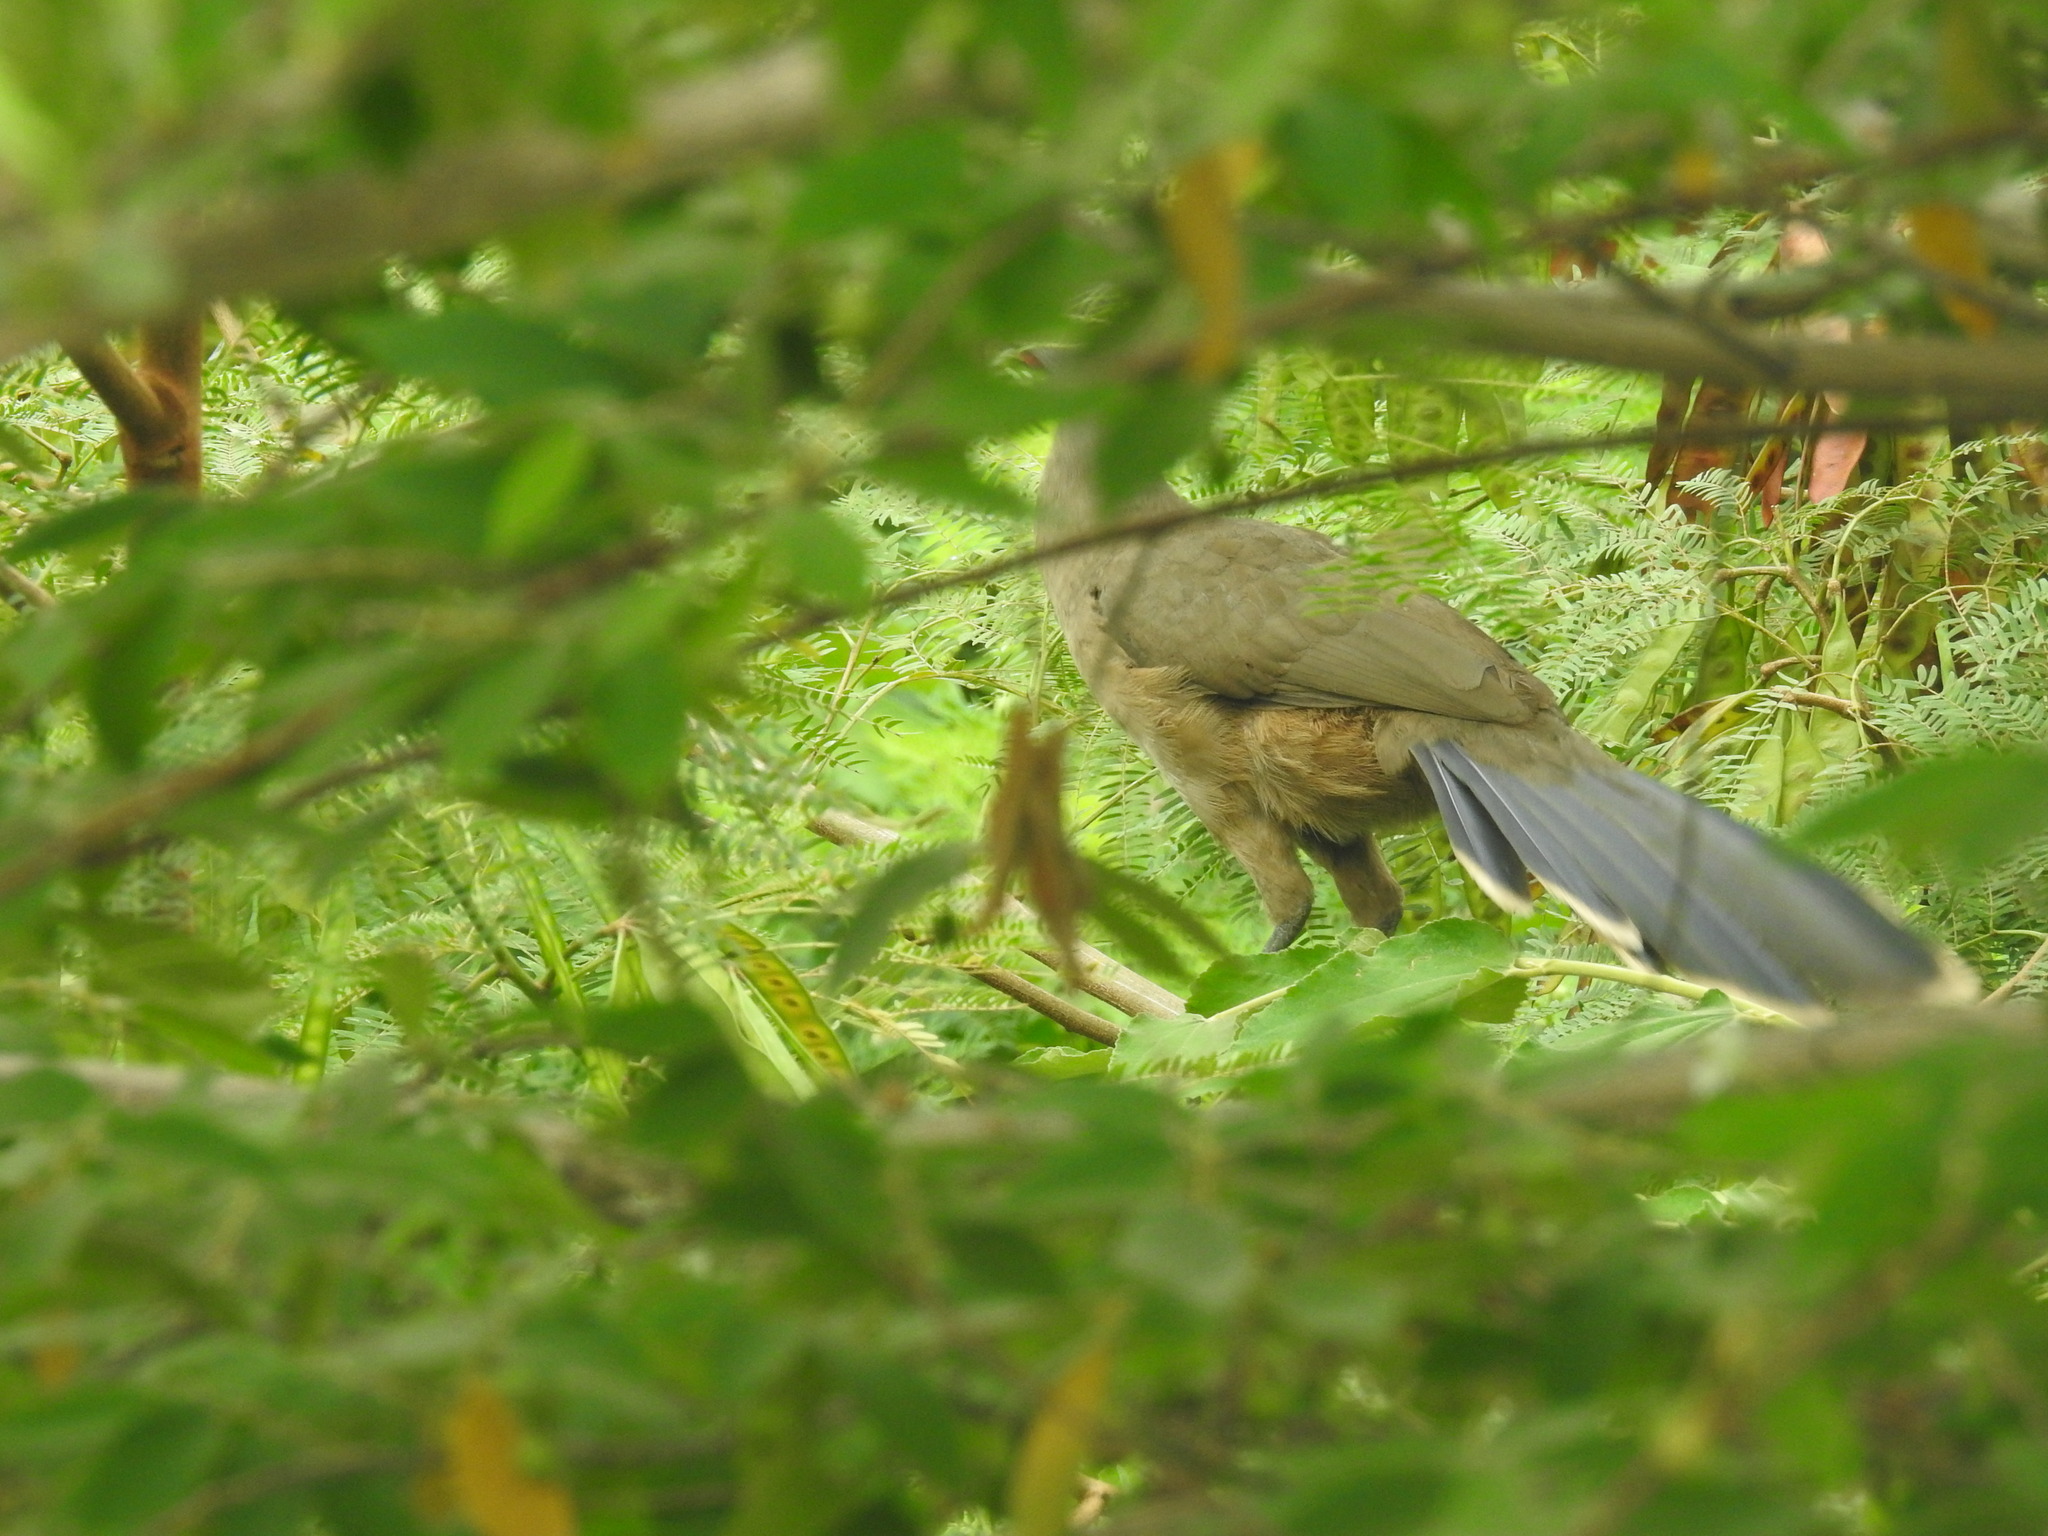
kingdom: Animalia
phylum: Chordata
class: Aves
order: Galliformes
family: Cracidae
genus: Ortalis
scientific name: Ortalis vetula
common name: Plain chachalaca
